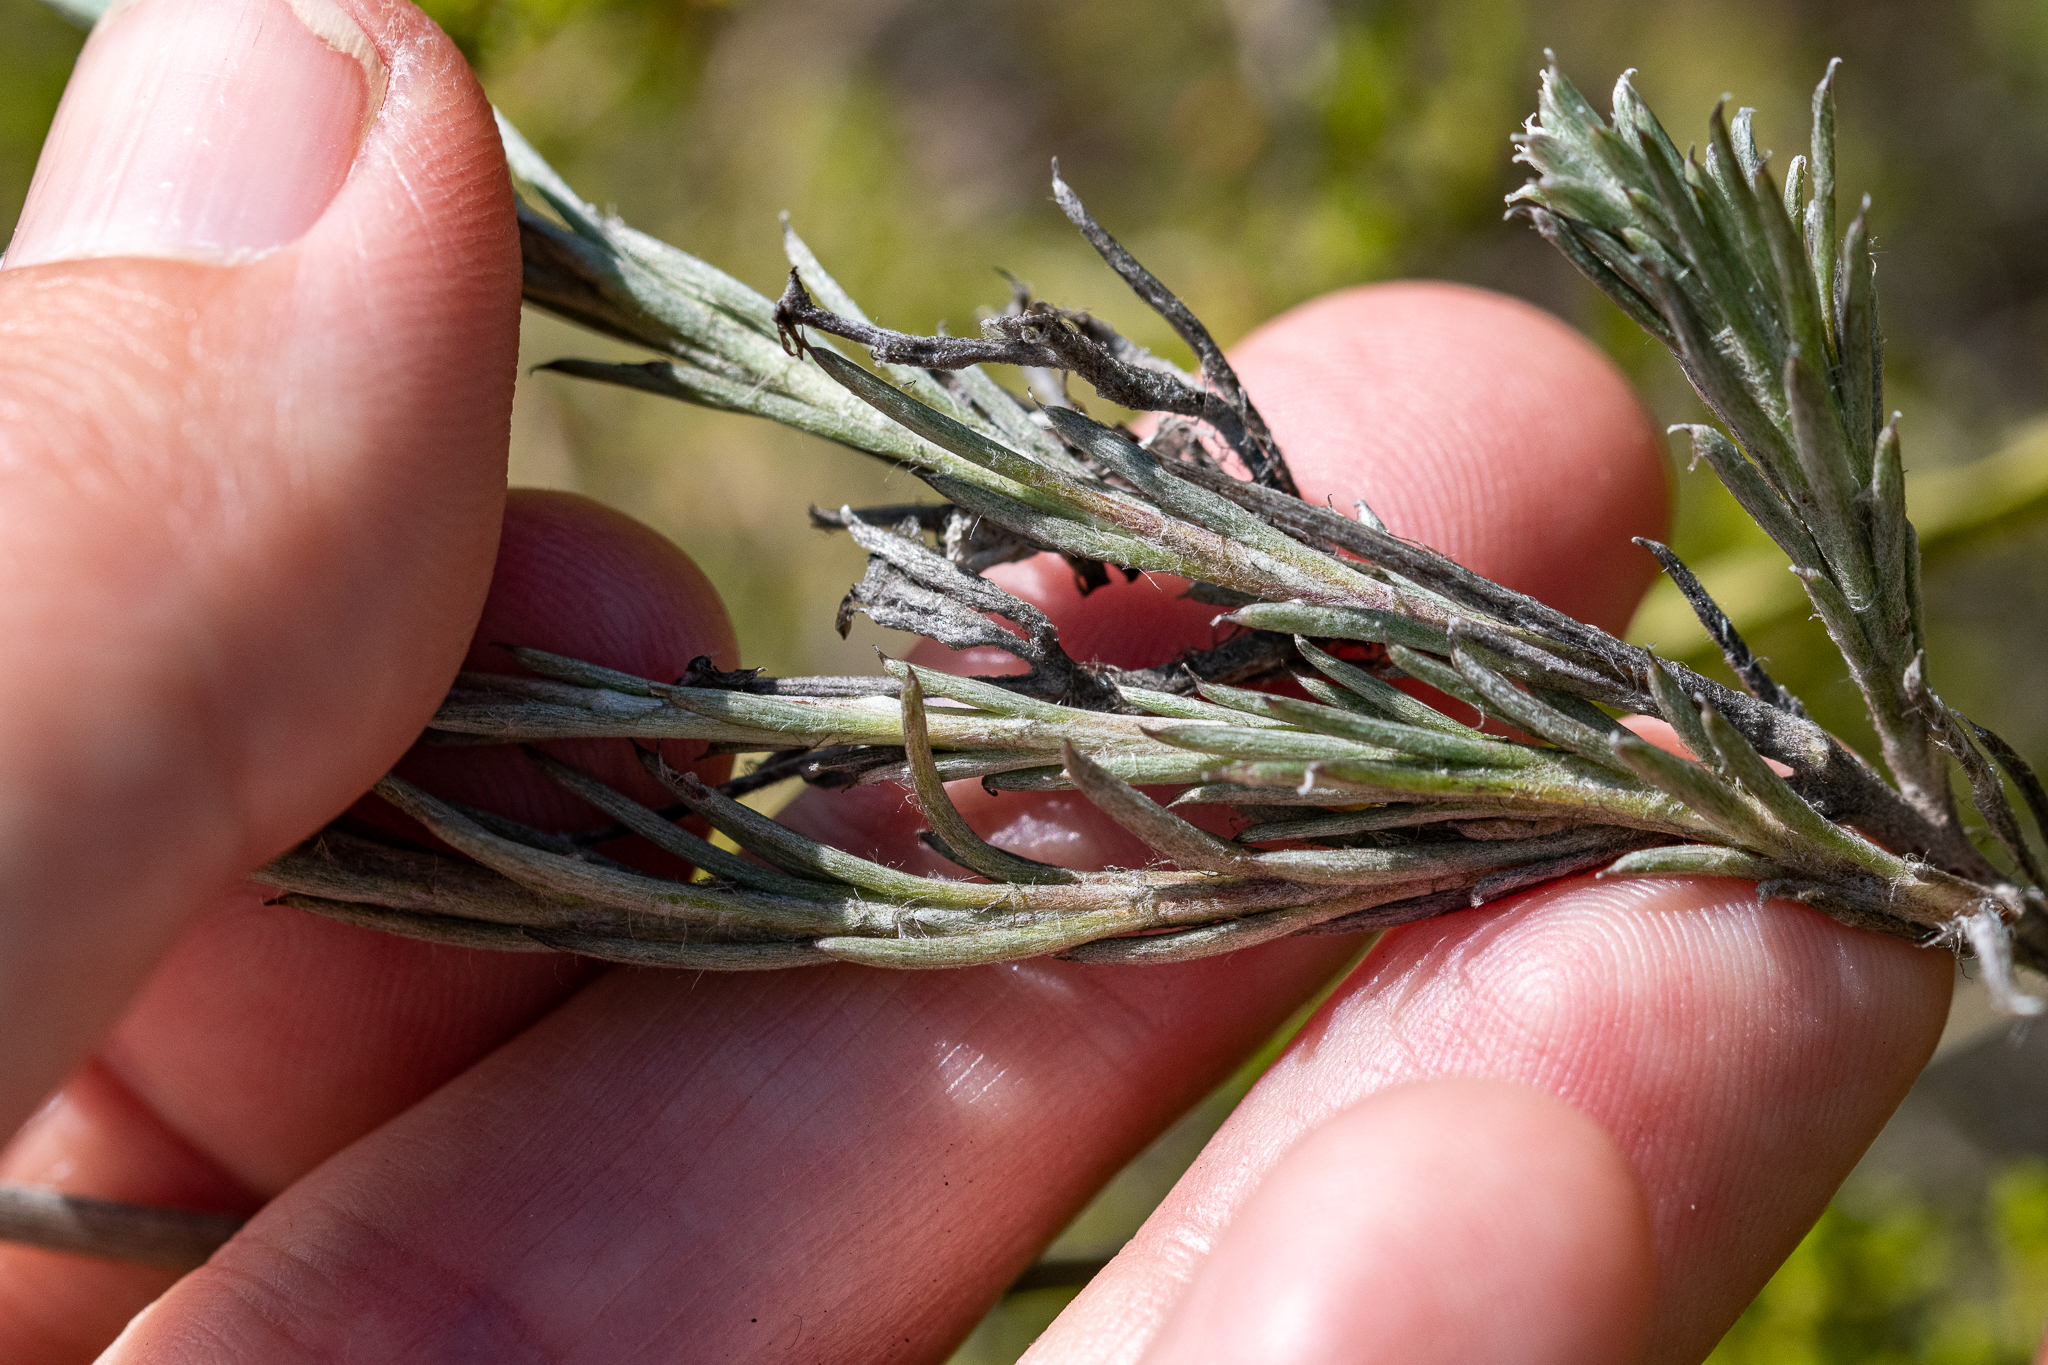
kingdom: Plantae
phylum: Tracheophyta
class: Magnoliopsida
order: Asterales
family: Asteraceae
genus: Achyranthemum
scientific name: Achyranthemum paniculatum
